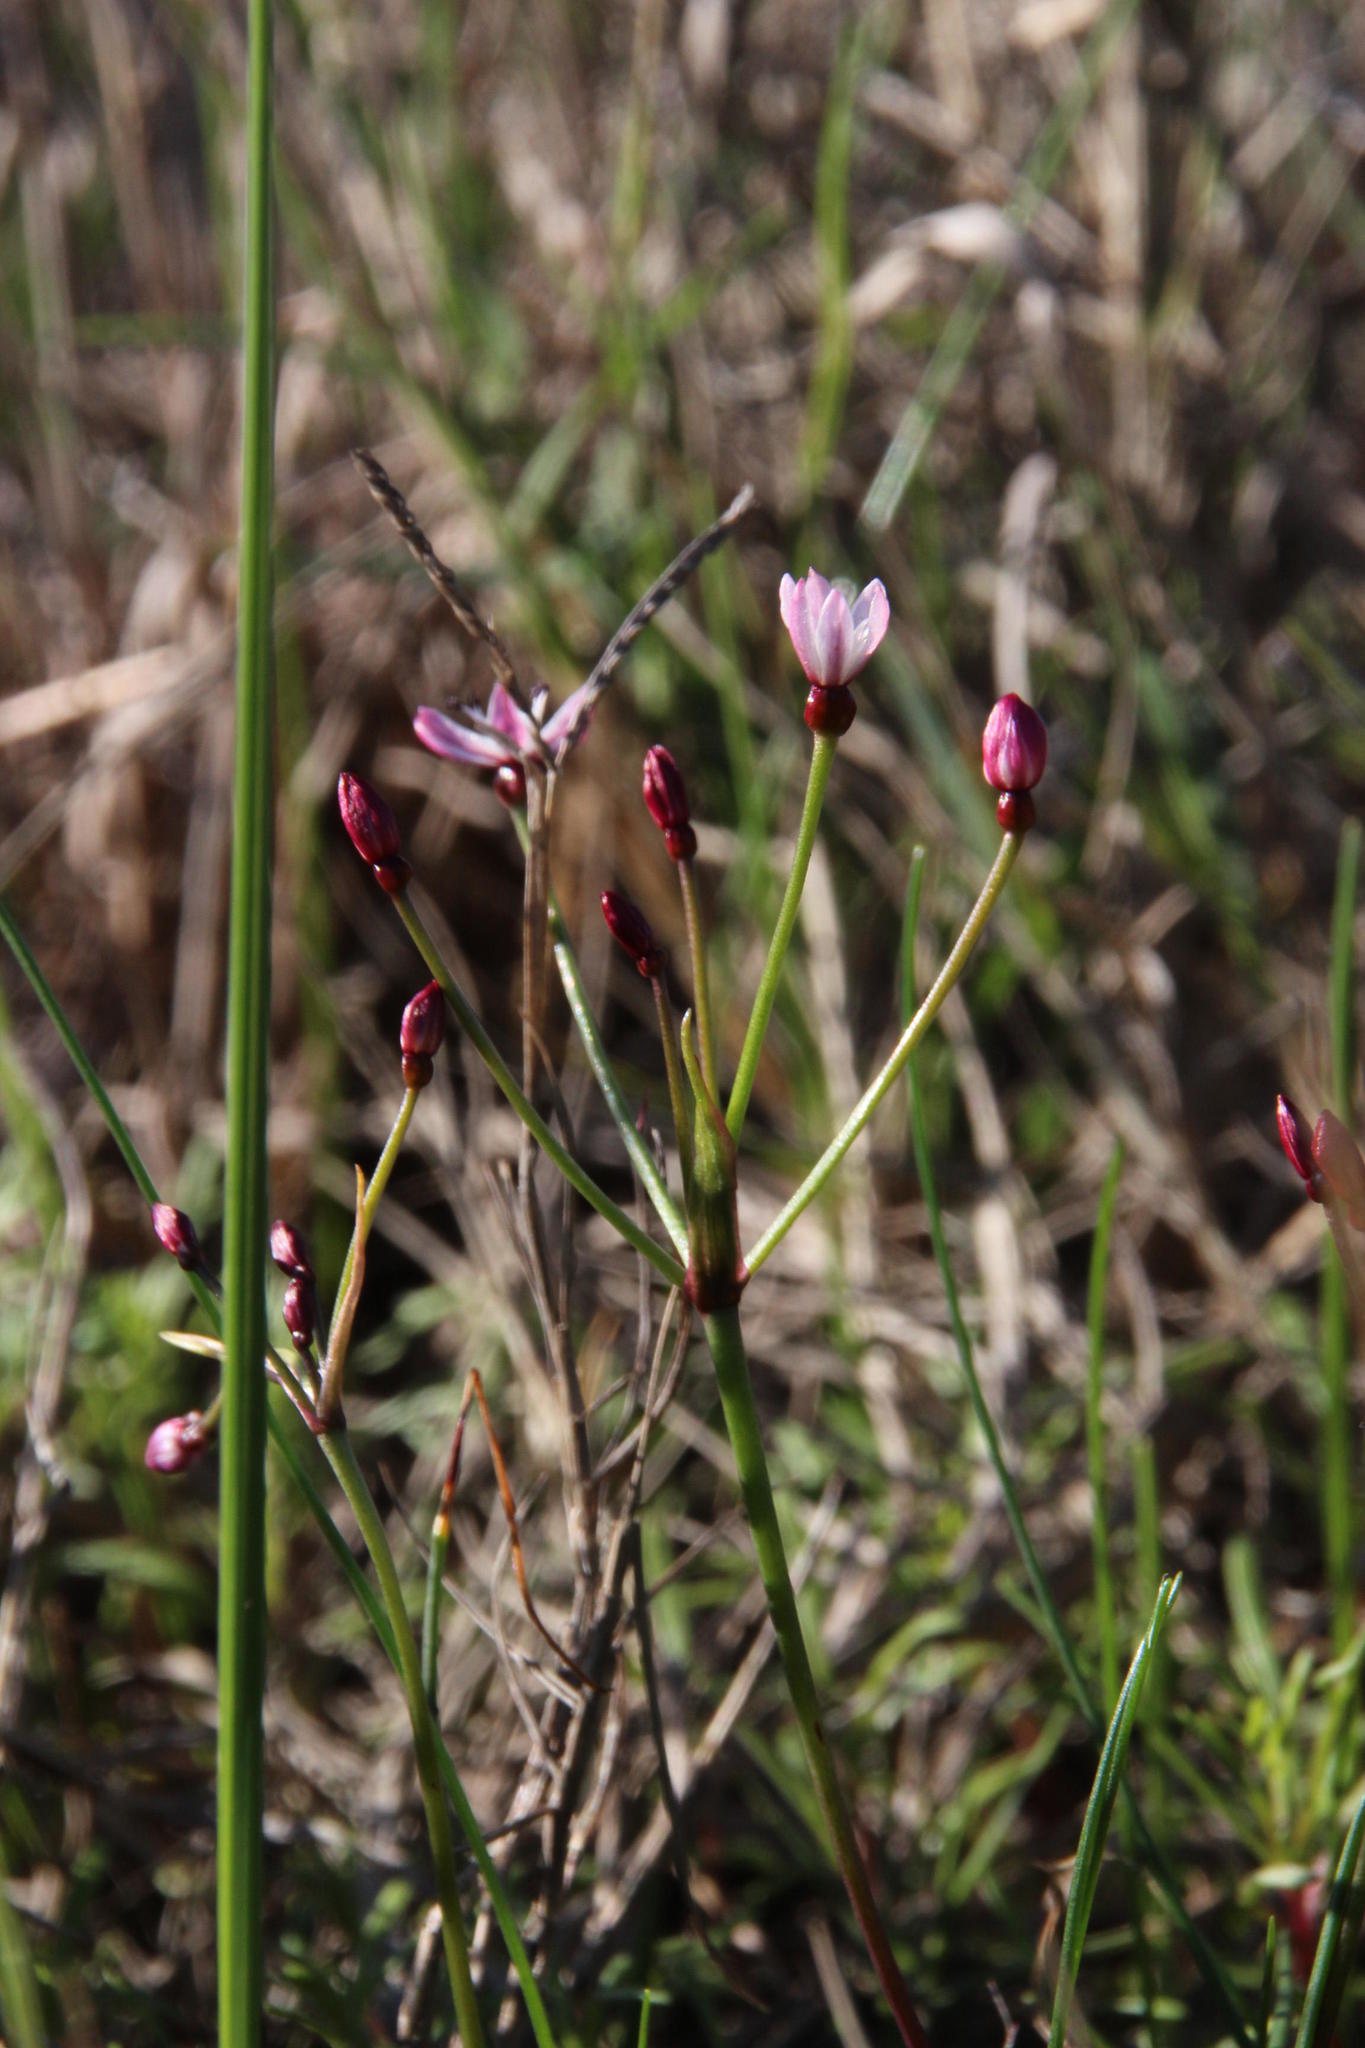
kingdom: Plantae
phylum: Tracheophyta
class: Liliopsida
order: Asparagales
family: Amaryllidaceae
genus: Strumaria
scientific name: Strumaria tenella
